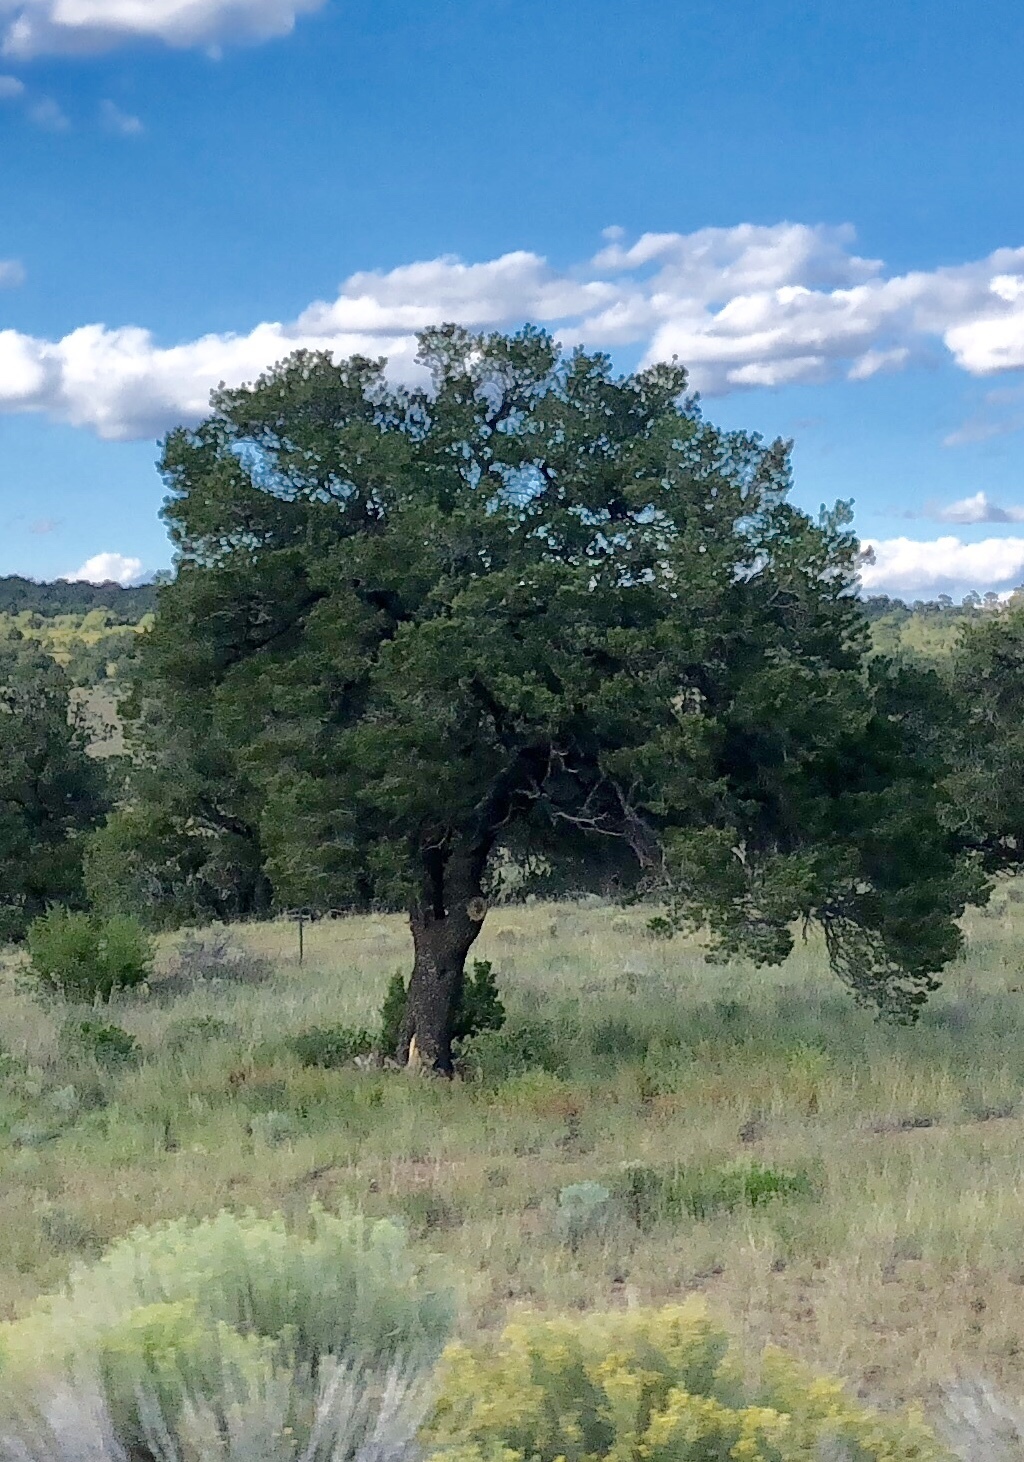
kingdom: Plantae
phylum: Tracheophyta
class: Pinopsida
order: Pinales
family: Cupressaceae
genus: Juniperus
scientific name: Juniperus deppeana
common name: Alligator juniper
